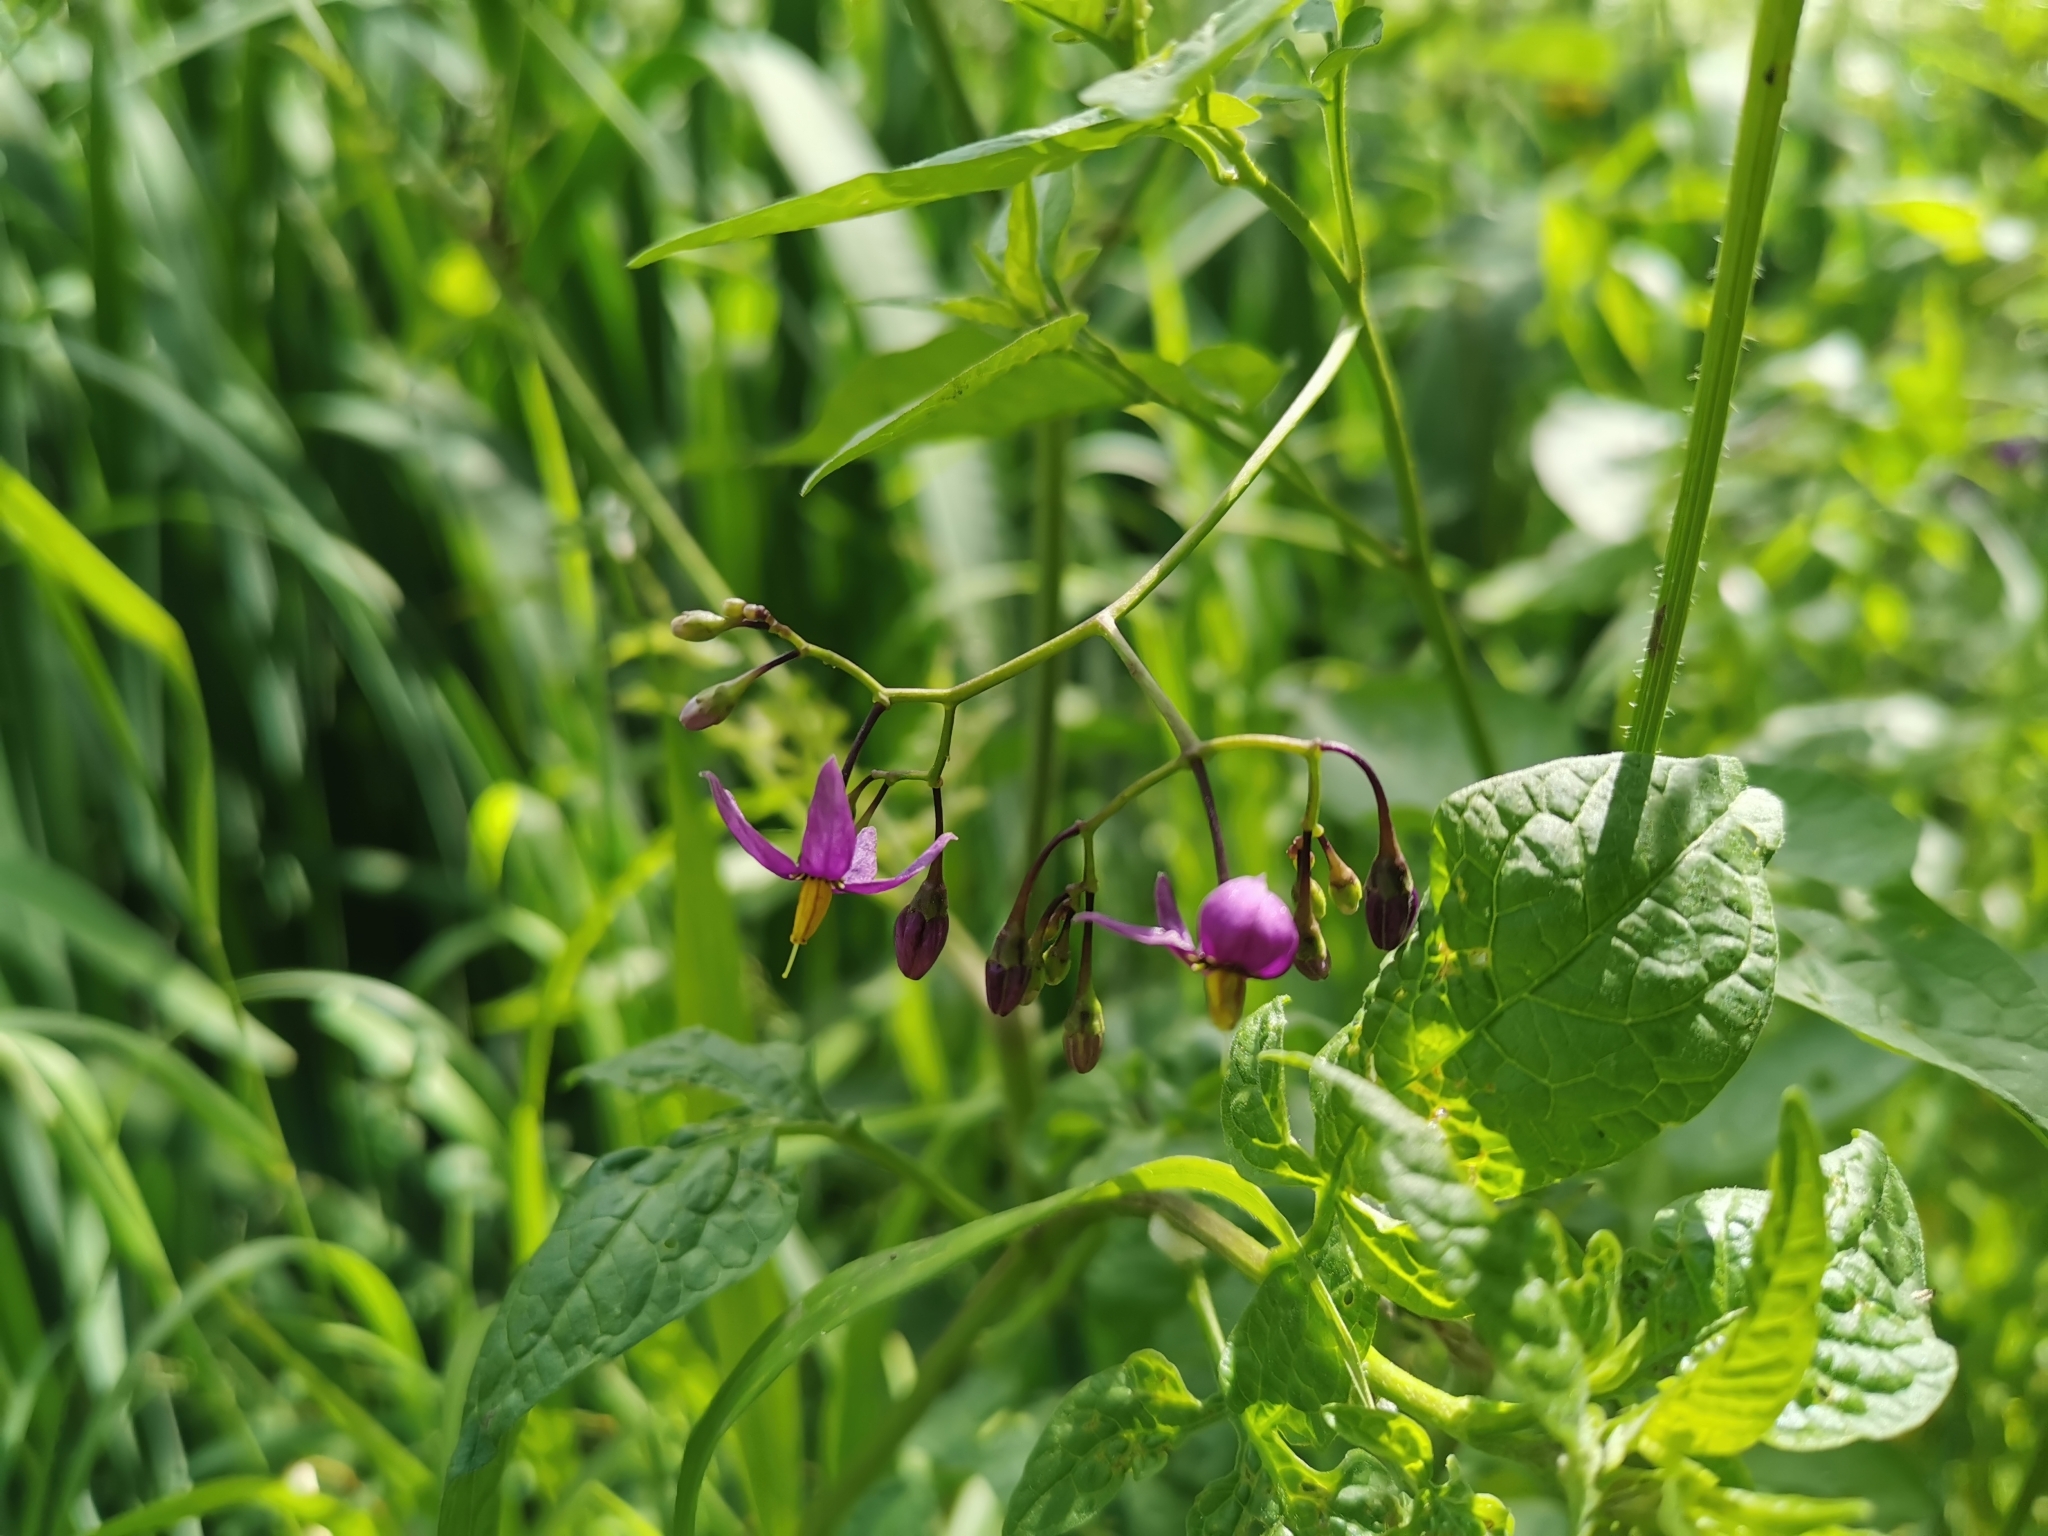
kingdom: Plantae
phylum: Tracheophyta
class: Magnoliopsida
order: Solanales
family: Solanaceae
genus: Solanum
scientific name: Solanum dulcamara
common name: Climbing nightshade
